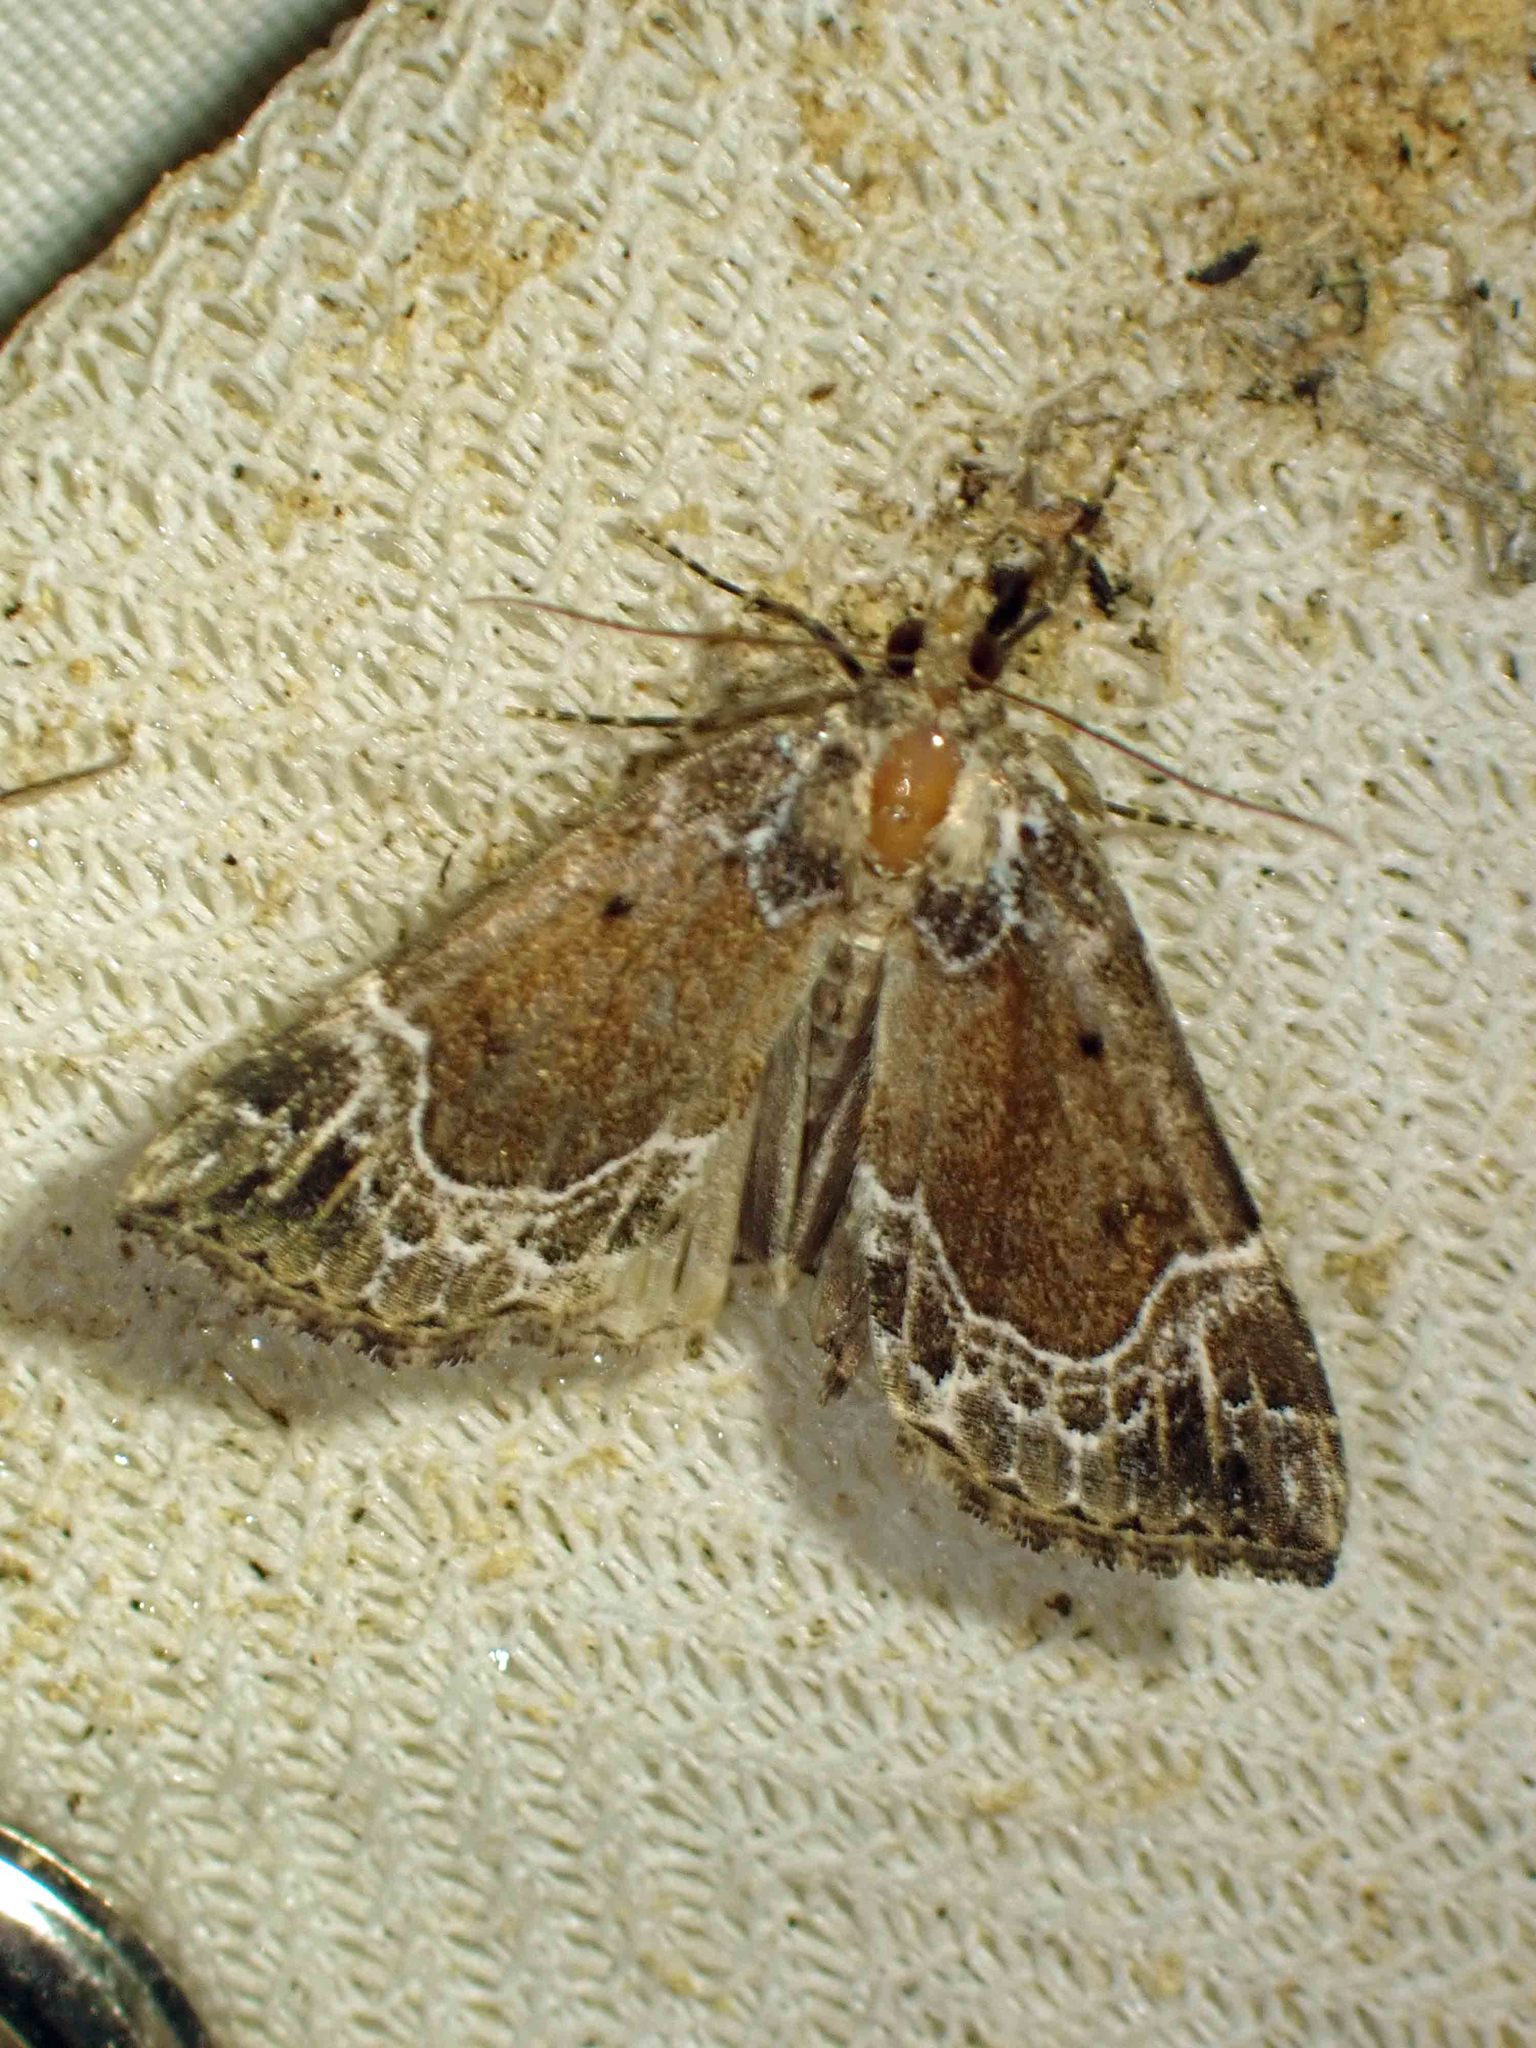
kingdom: Animalia
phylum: Arthropoda
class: Insecta
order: Lepidoptera
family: Erebidae
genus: Hypena
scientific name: Hypena abalienalis
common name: White-lined snout
